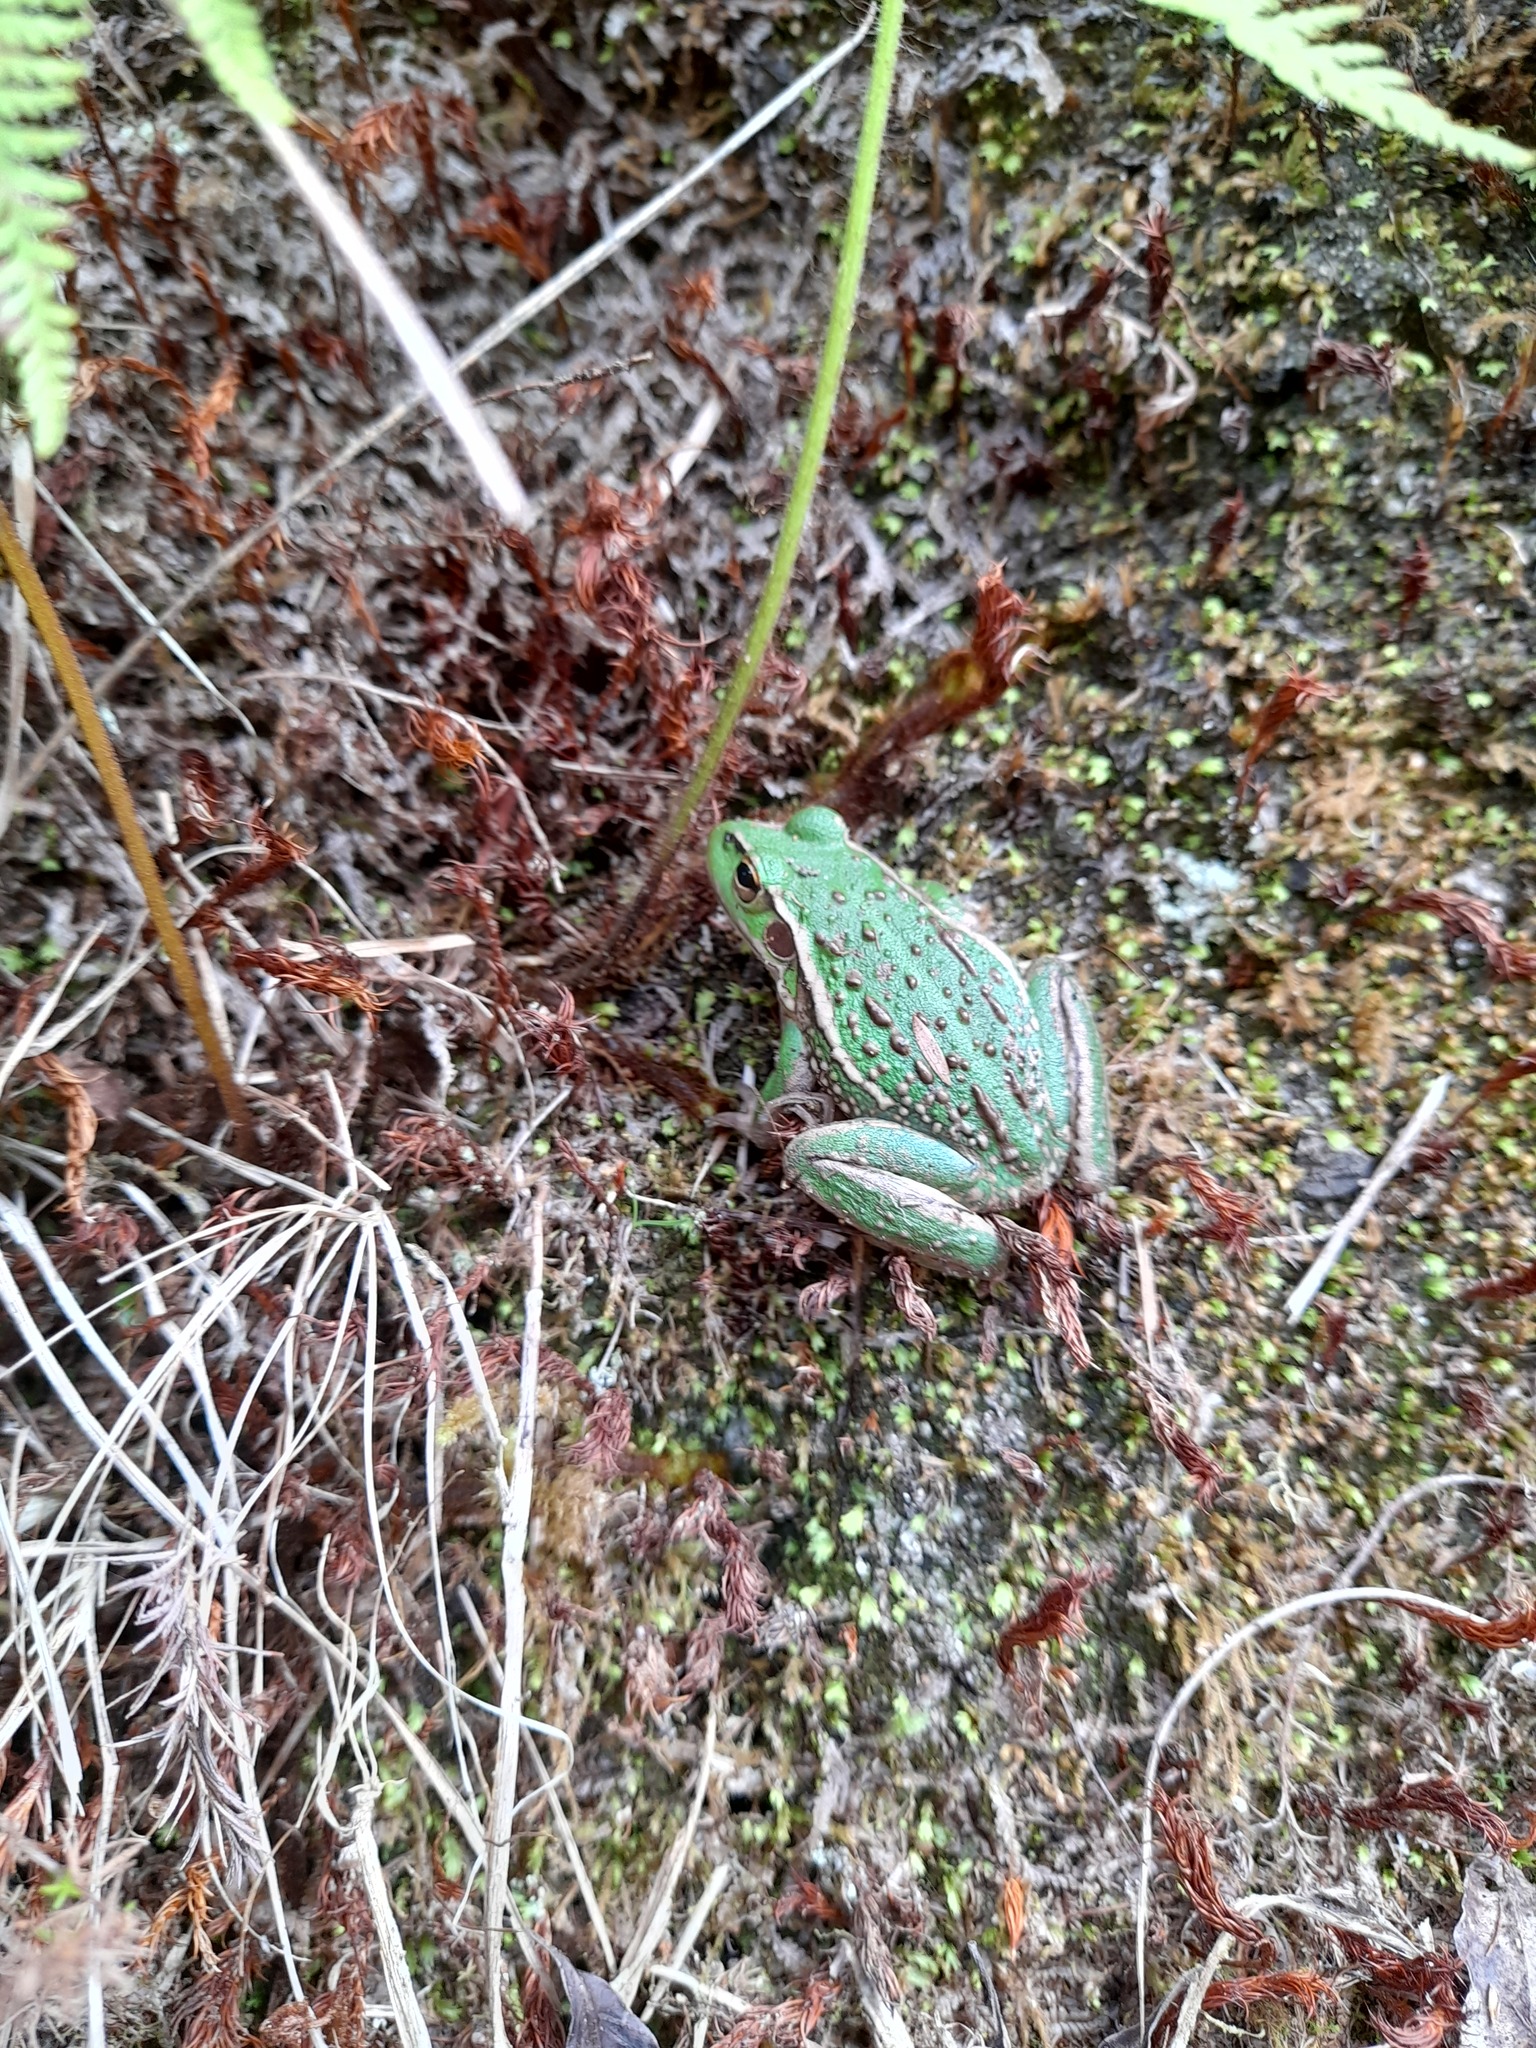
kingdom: Animalia
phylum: Chordata
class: Amphibia
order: Anura
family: Pelodryadidae
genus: Ranoidea
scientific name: Ranoidea raniformis
